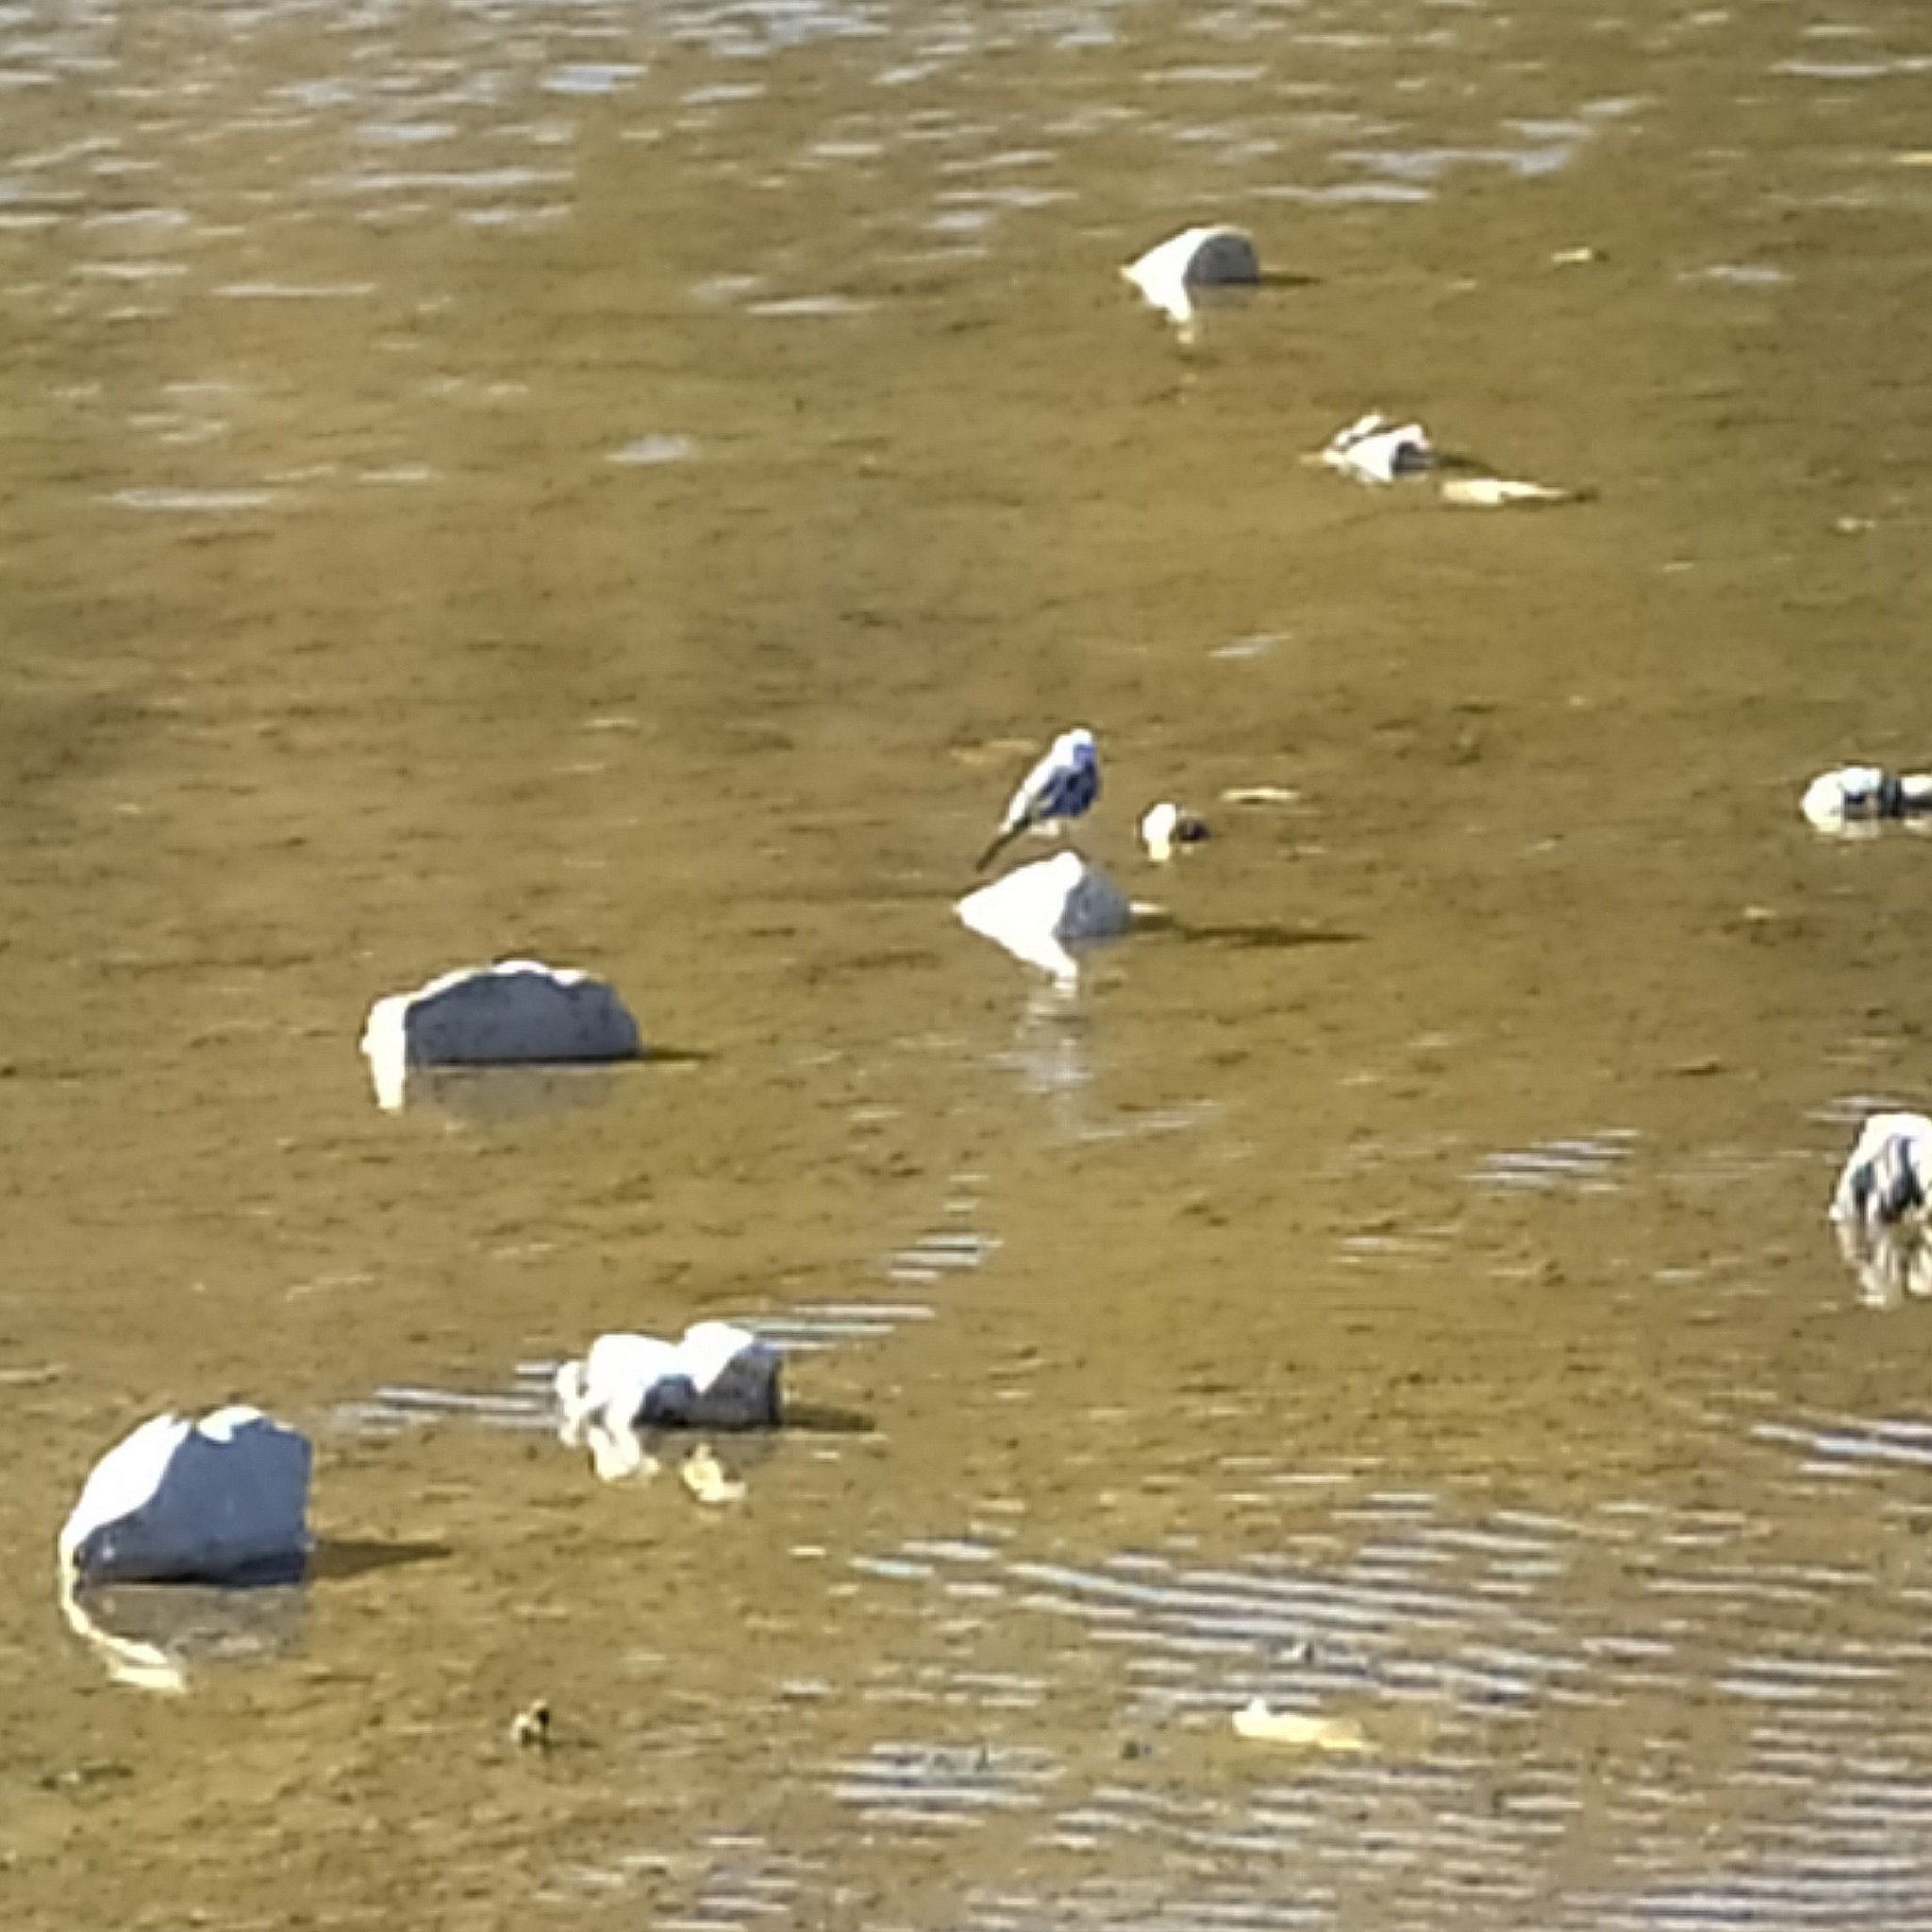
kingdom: Animalia
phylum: Chordata
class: Aves
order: Passeriformes
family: Motacillidae
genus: Motacilla
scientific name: Motacilla alba
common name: White wagtail
